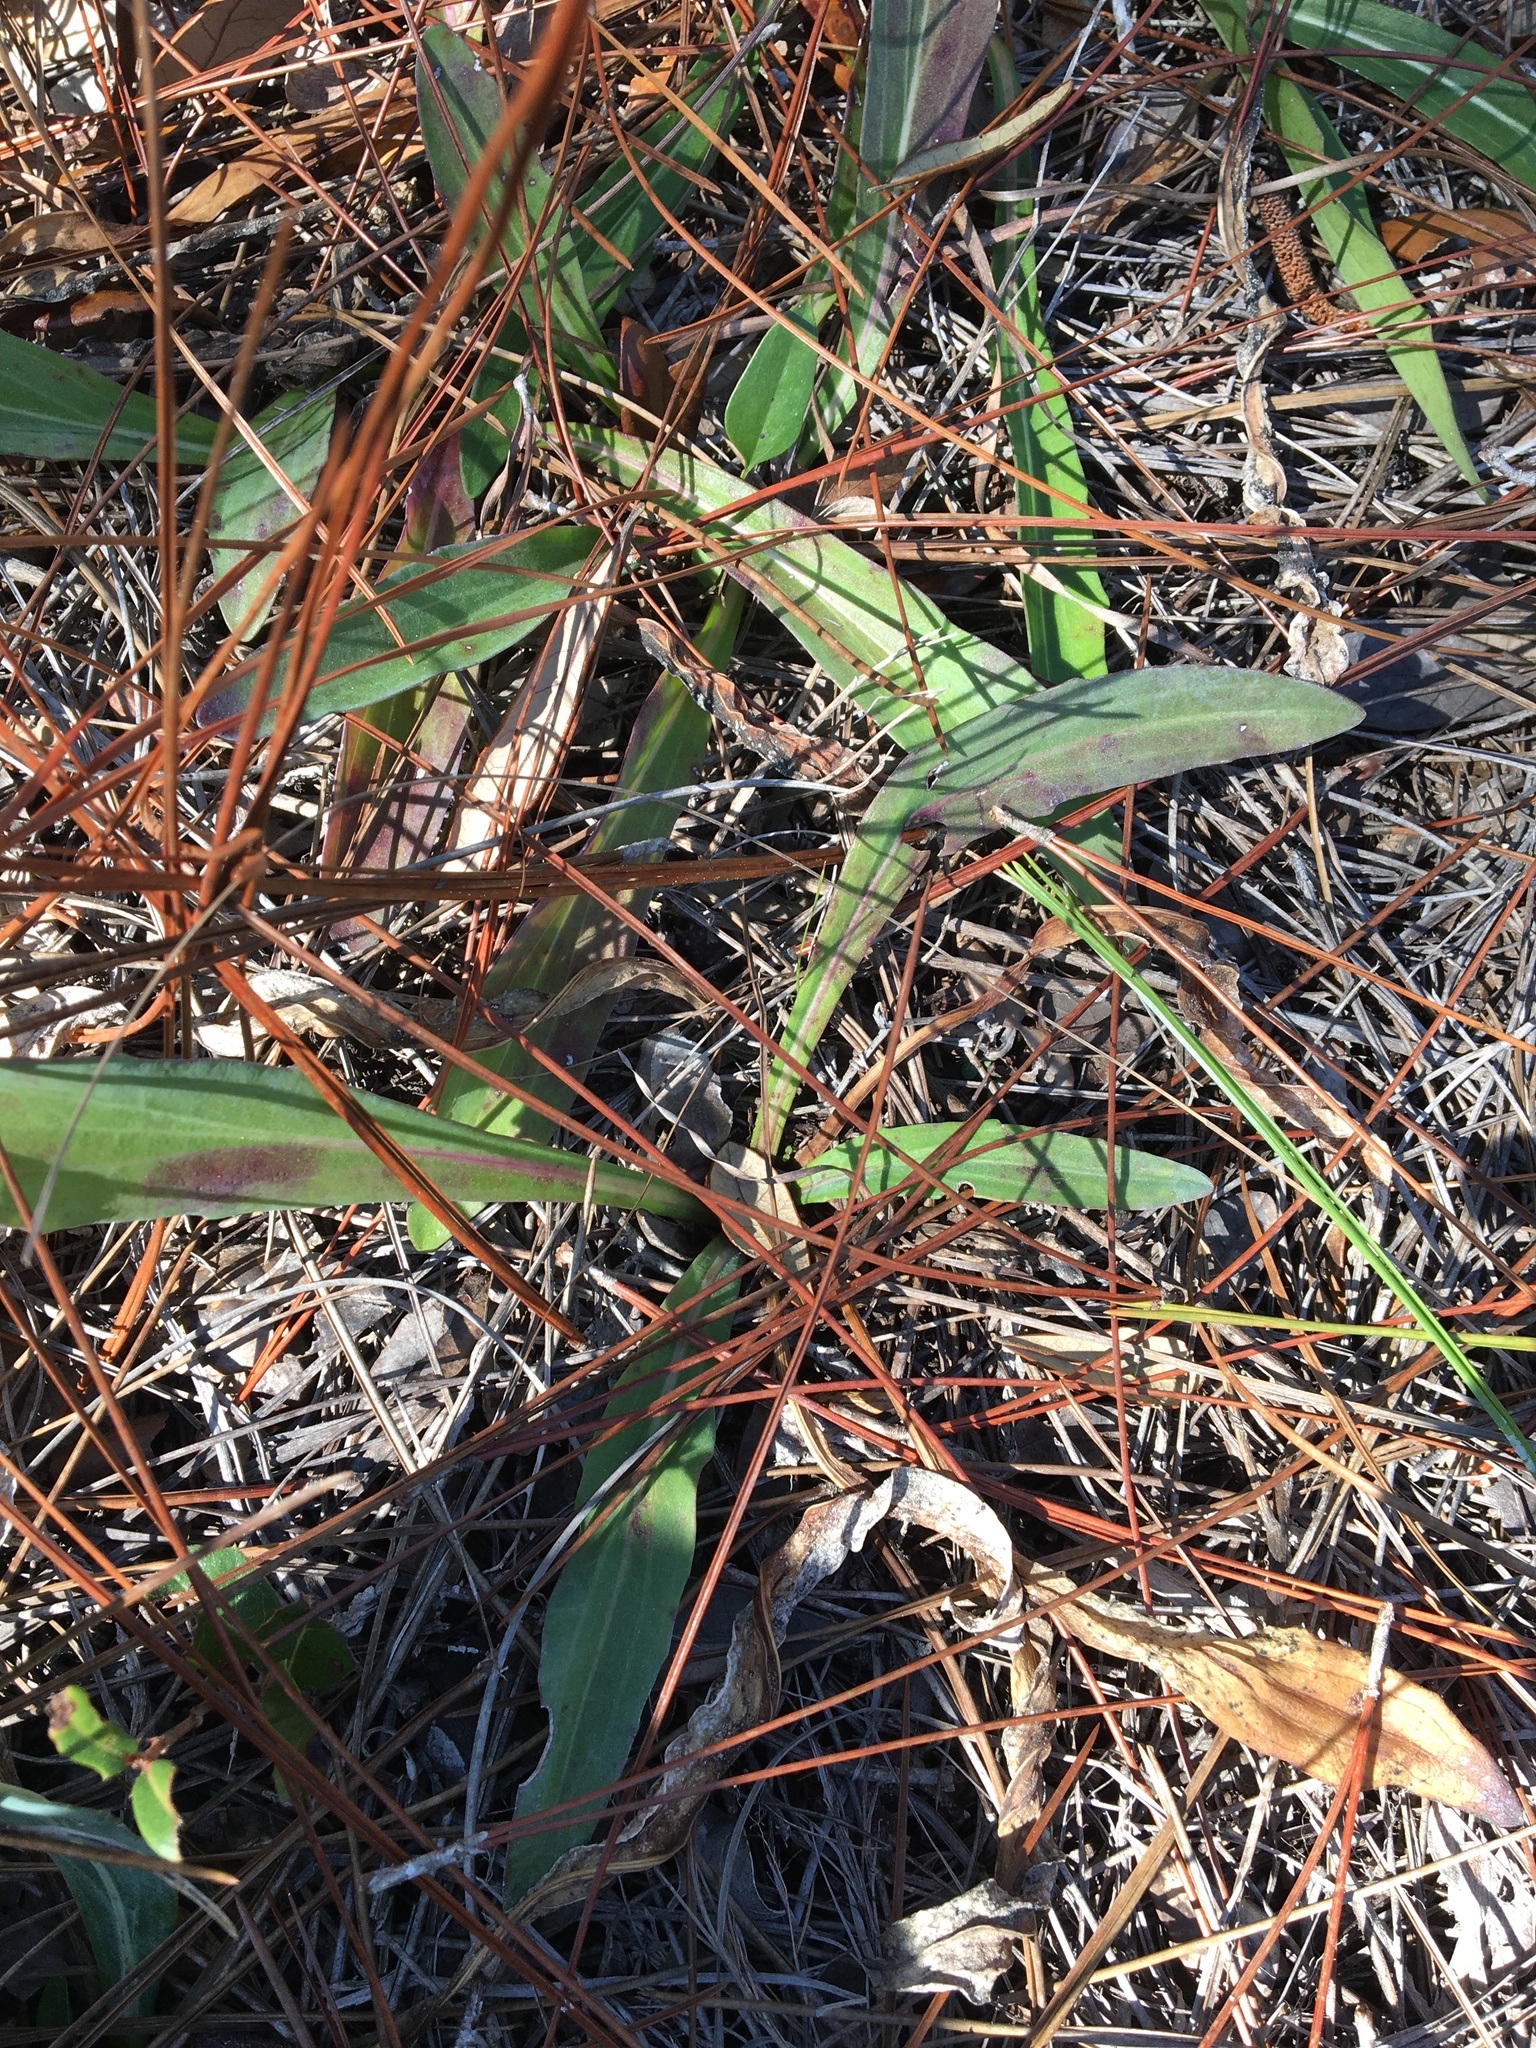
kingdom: Plantae
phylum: Tracheophyta
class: Magnoliopsida
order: Asterales
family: Asteraceae
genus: Carphephorus
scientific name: Carphephorus odoratissimus
